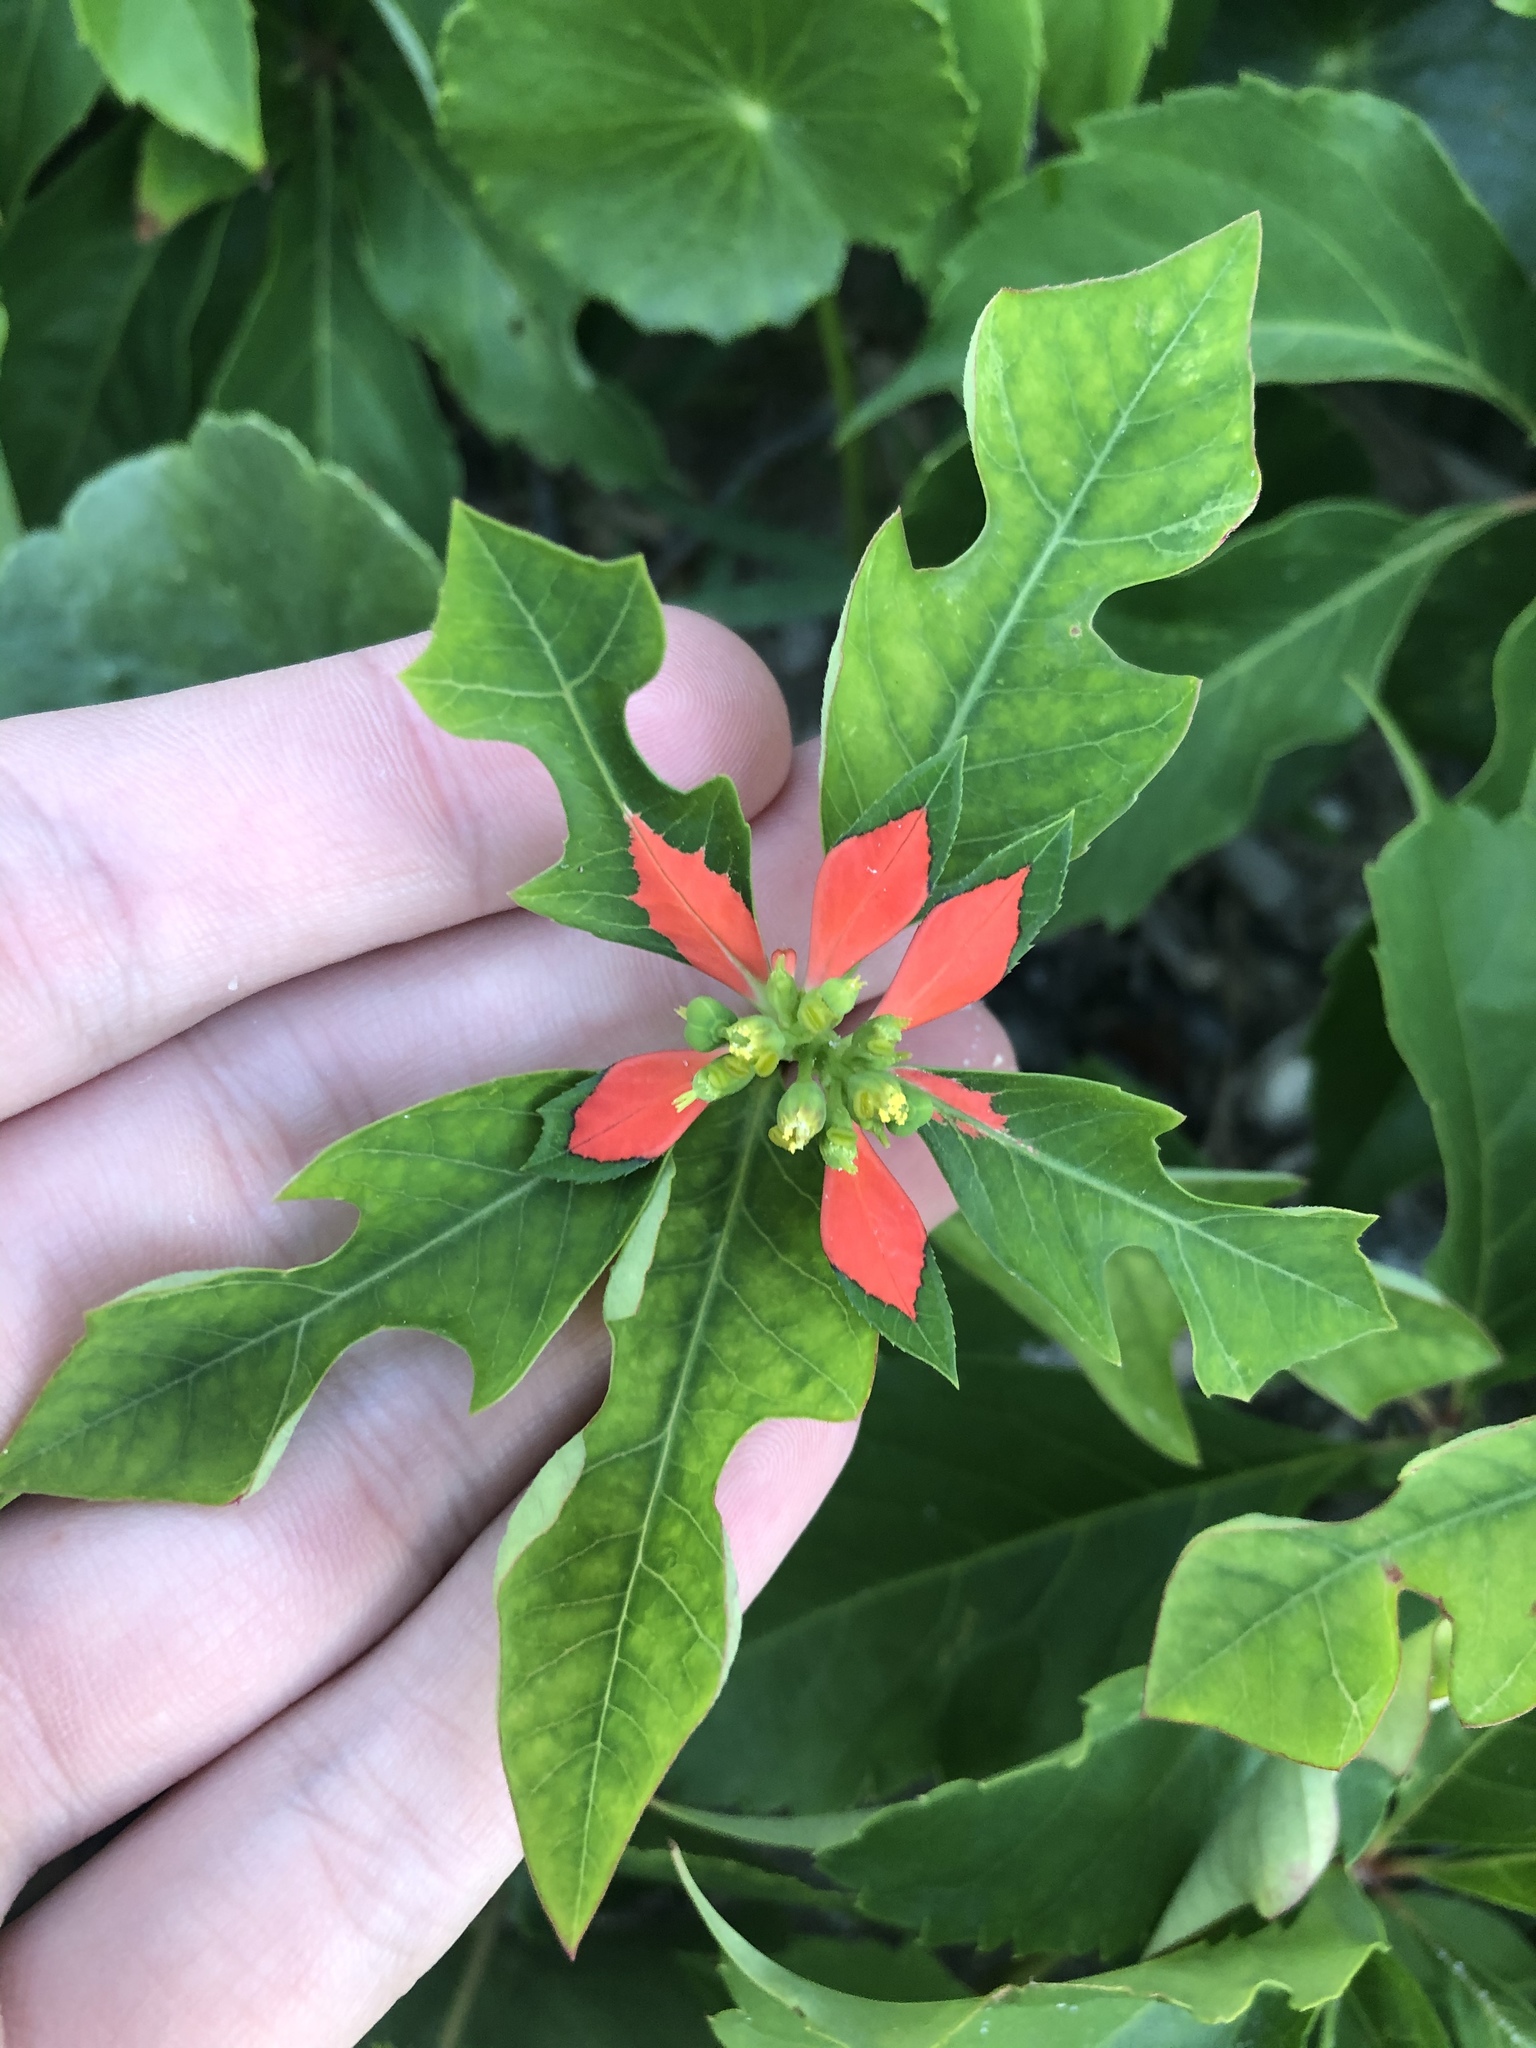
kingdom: Plantae
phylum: Tracheophyta
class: Magnoliopsida
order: Malpighiales
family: Euphorbiaceae
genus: Euphorbia
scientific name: Euphorbia heterophylla
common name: Mexican fireplant
